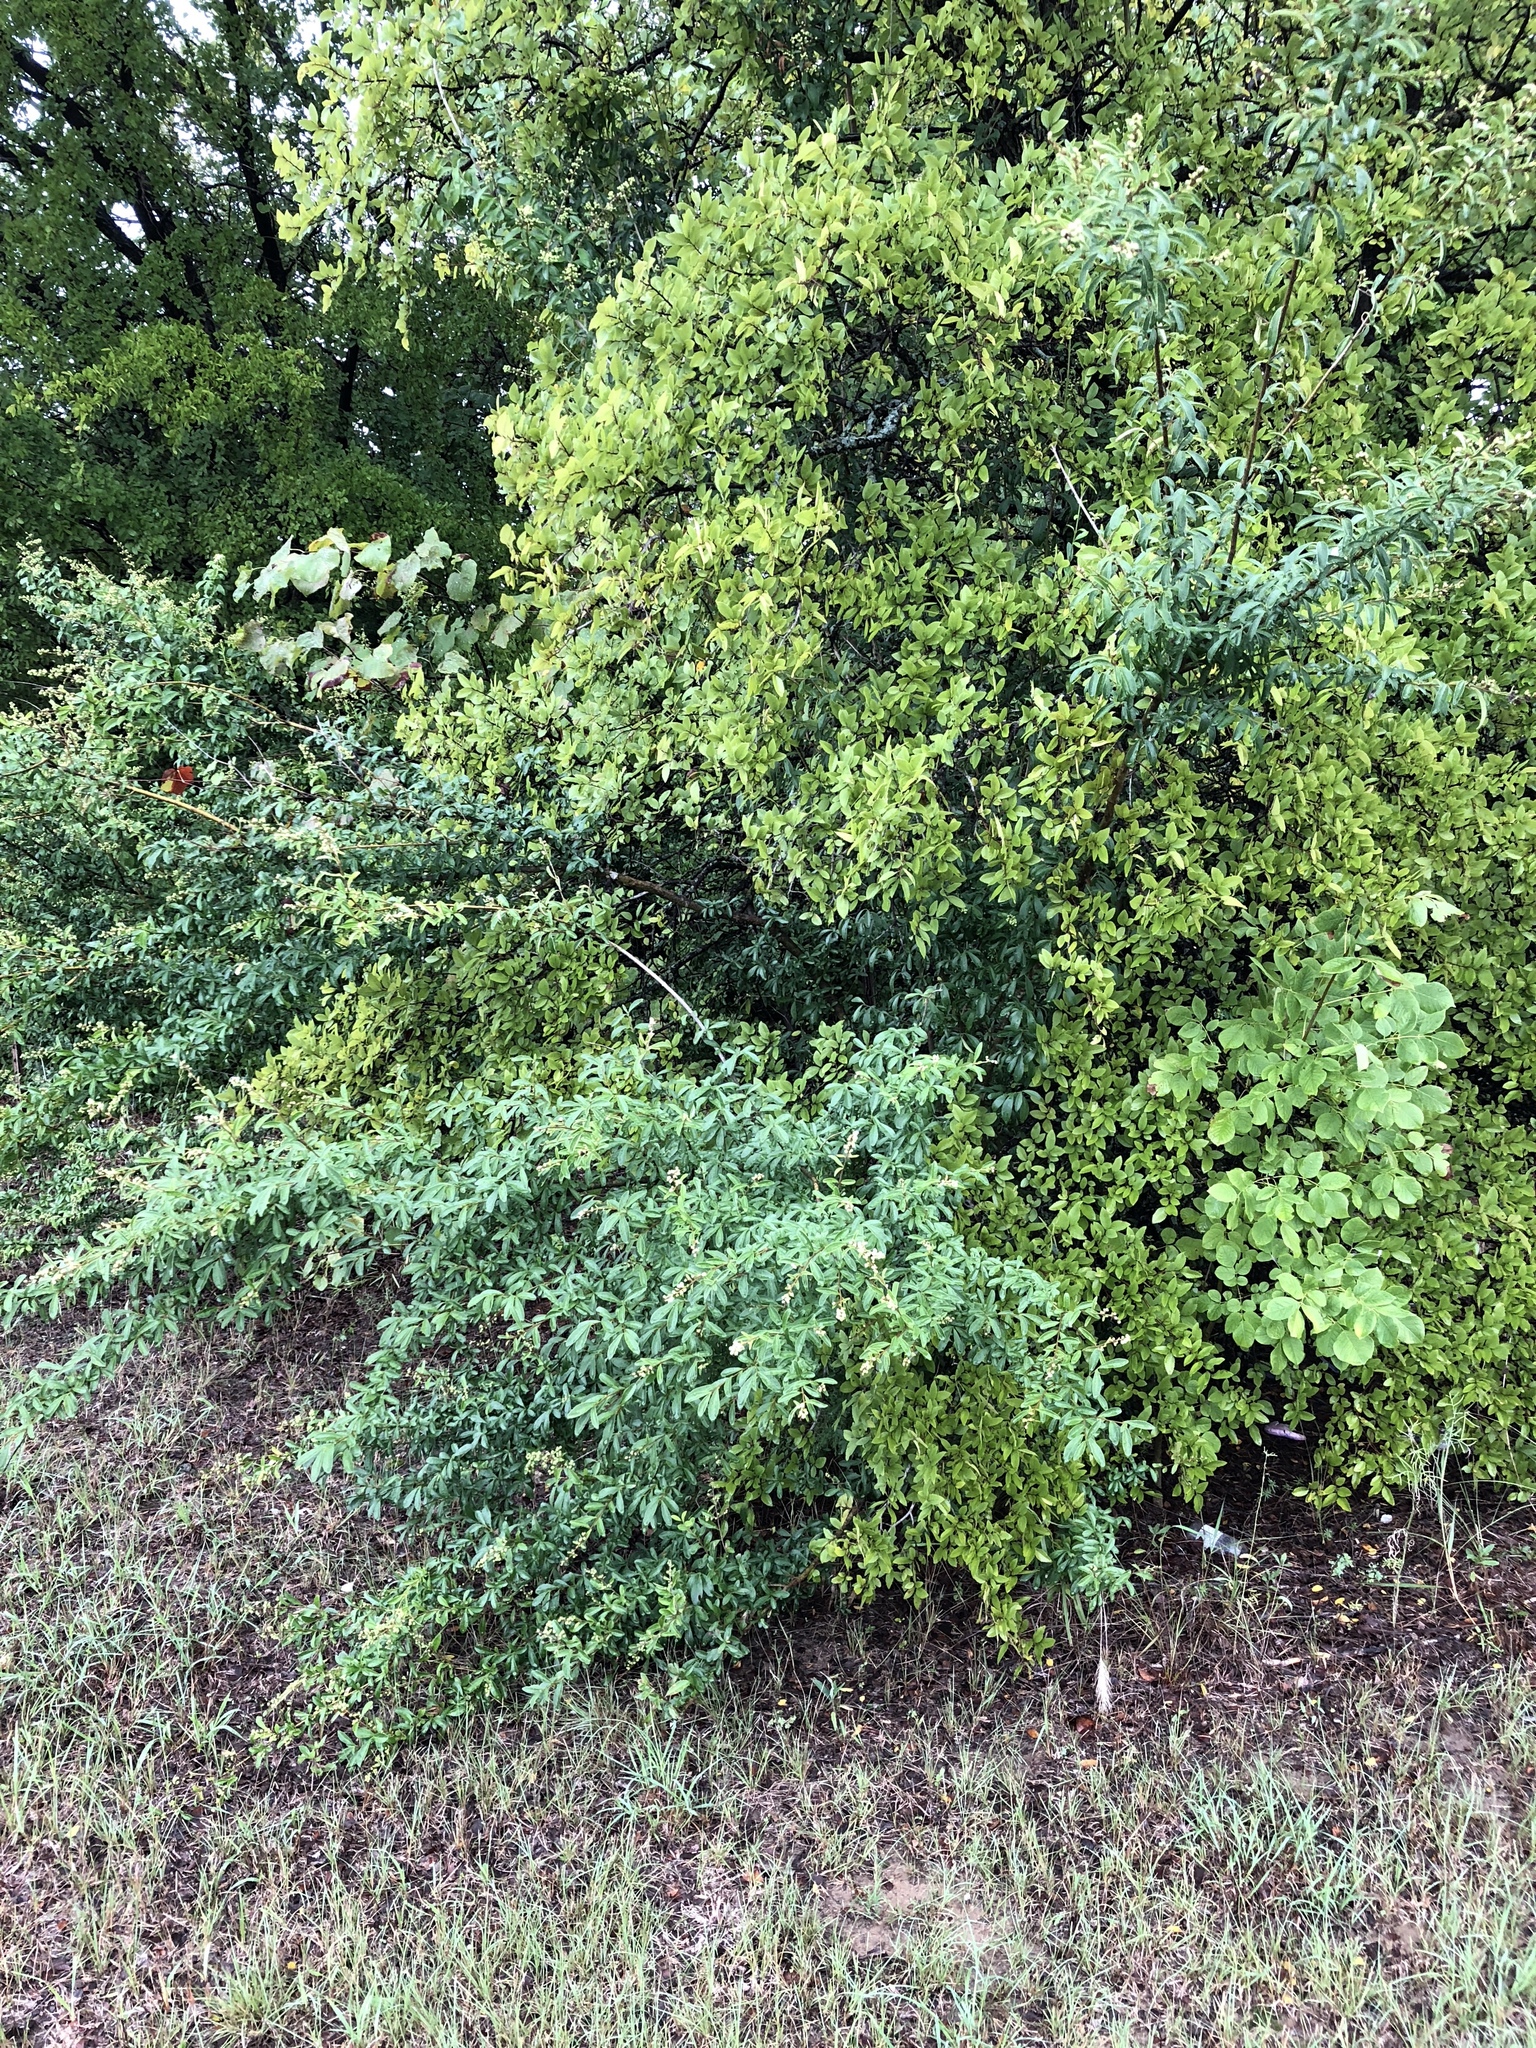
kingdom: Plantae
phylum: Tracheophyta
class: Magnoliopsida
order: Lamiales
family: Oleaceae
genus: Ligustrum
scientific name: Ligustrum quihoui
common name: Waxyleaf privet
